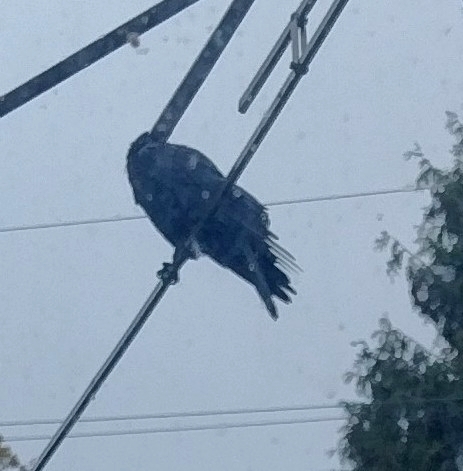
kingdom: Animalia
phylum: Chordata
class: Aves
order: Passeriformes
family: Corvidae
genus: Corvus
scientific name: Corvus brachyrhynchos
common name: American crow
